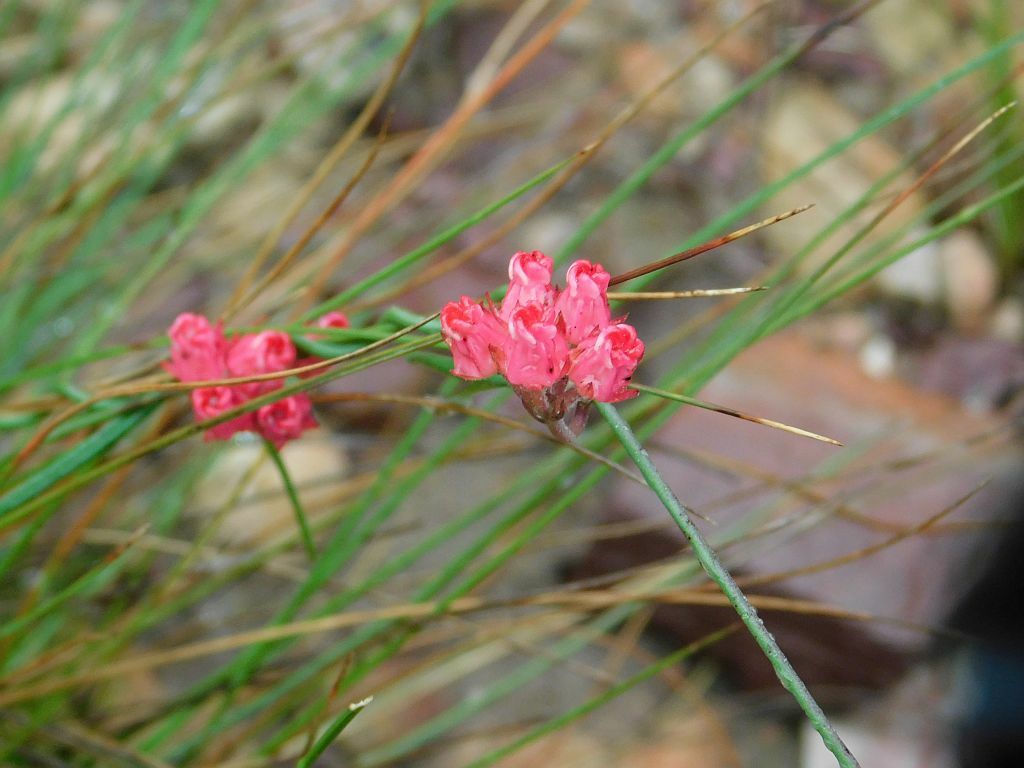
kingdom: Plantae
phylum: Tracheophyta
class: Magnoliopsida
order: Gentianales
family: Apocynaceae
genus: Microloma
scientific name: Microloma tenuifolium
